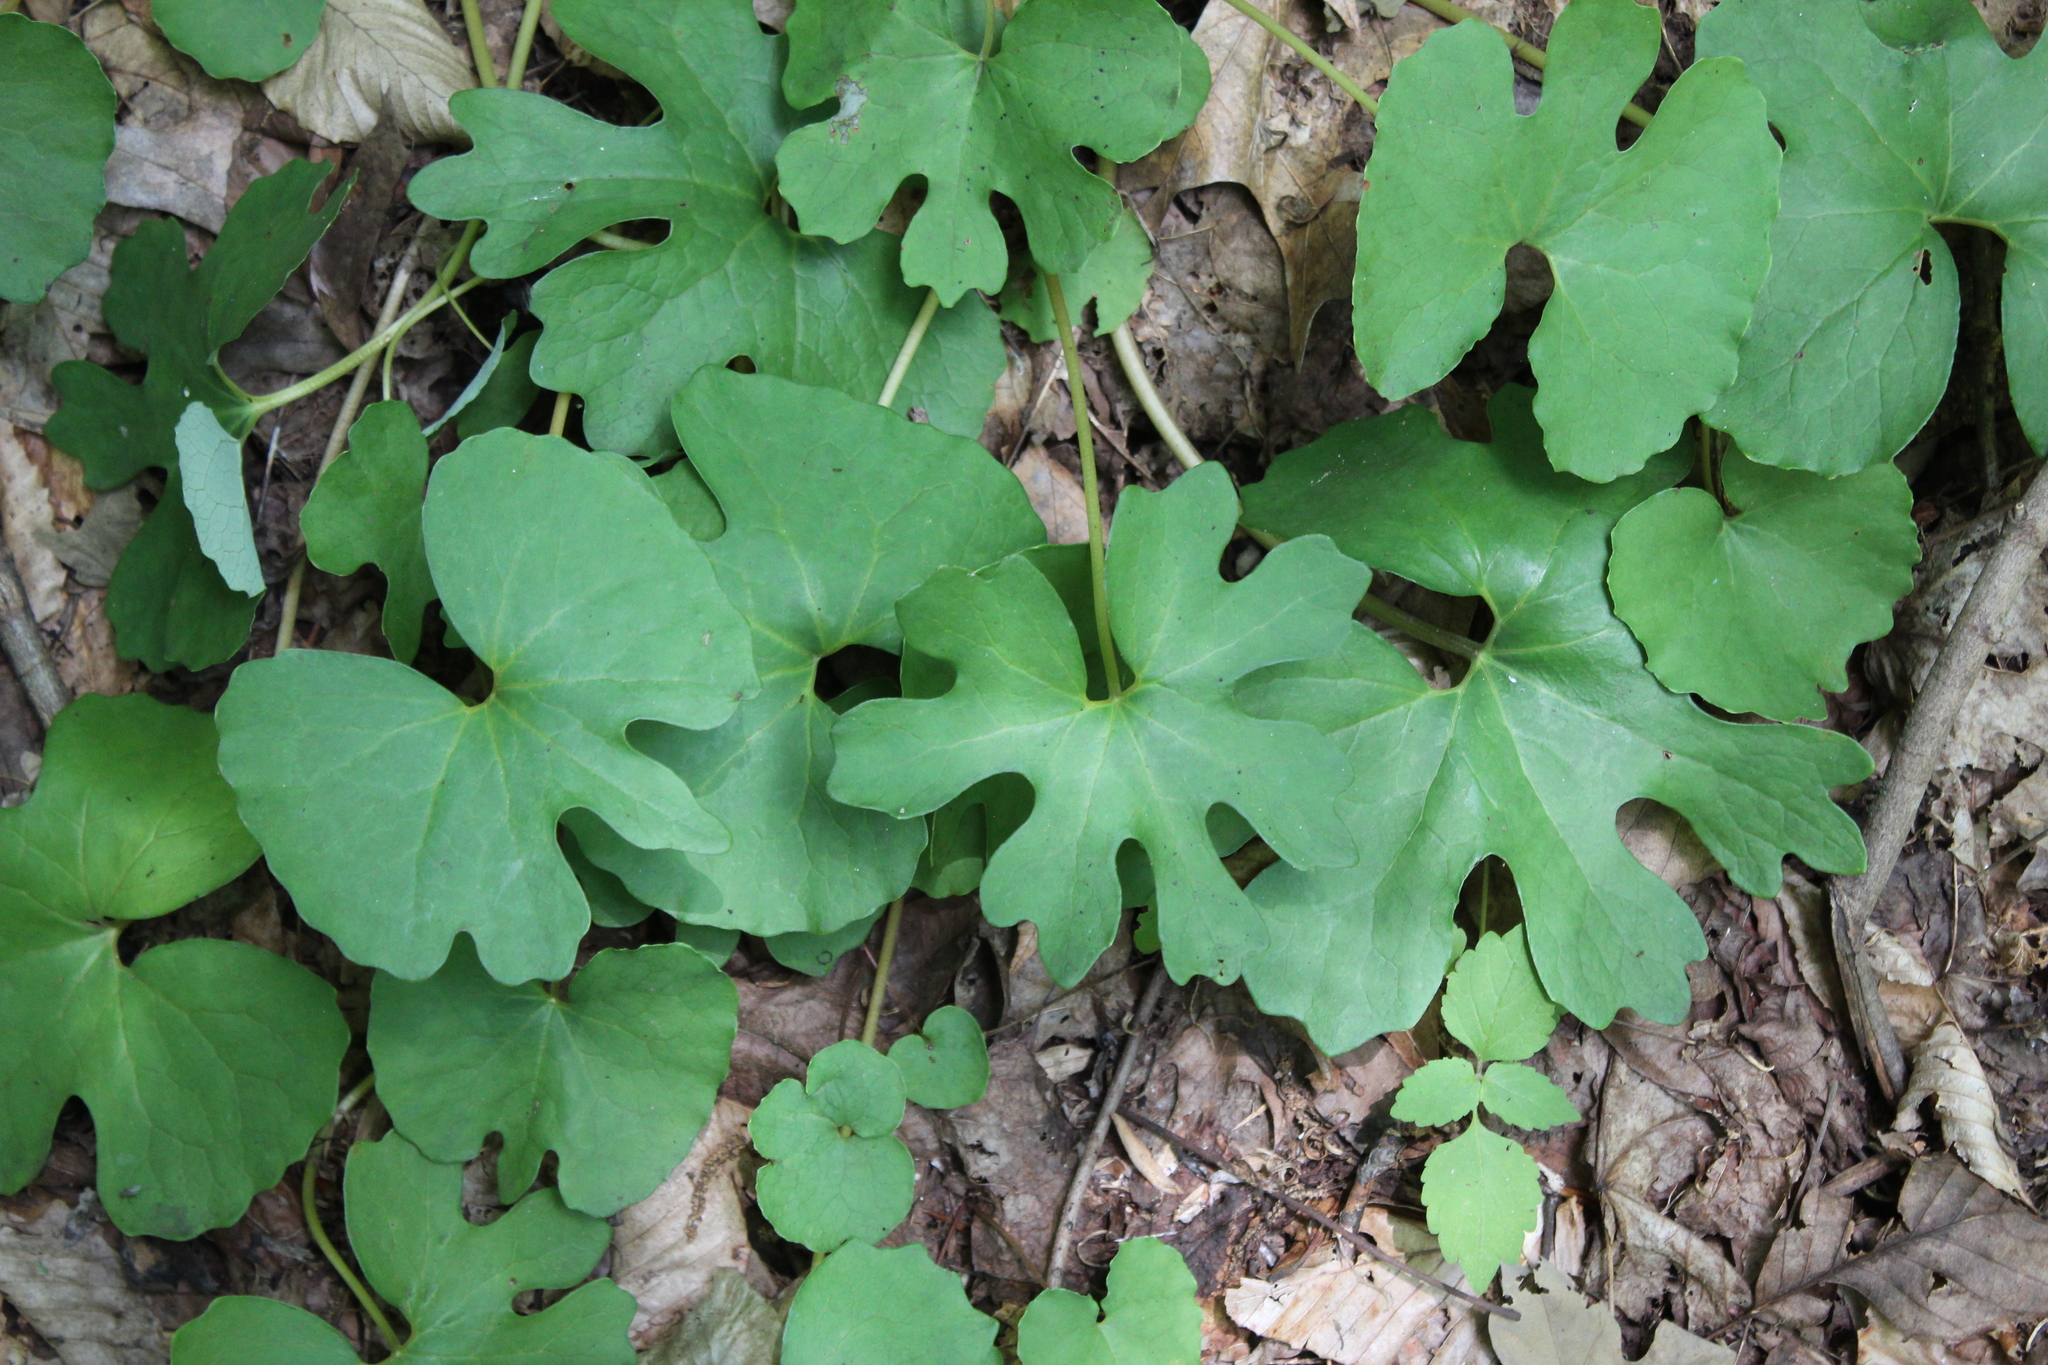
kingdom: Plantae
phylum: Tracheophyta
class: Magnoliopsida
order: Ranunculales
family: Papaveraceae
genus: Sanguinaria
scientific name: Sanguinaria canadensis
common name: Bloodroot
